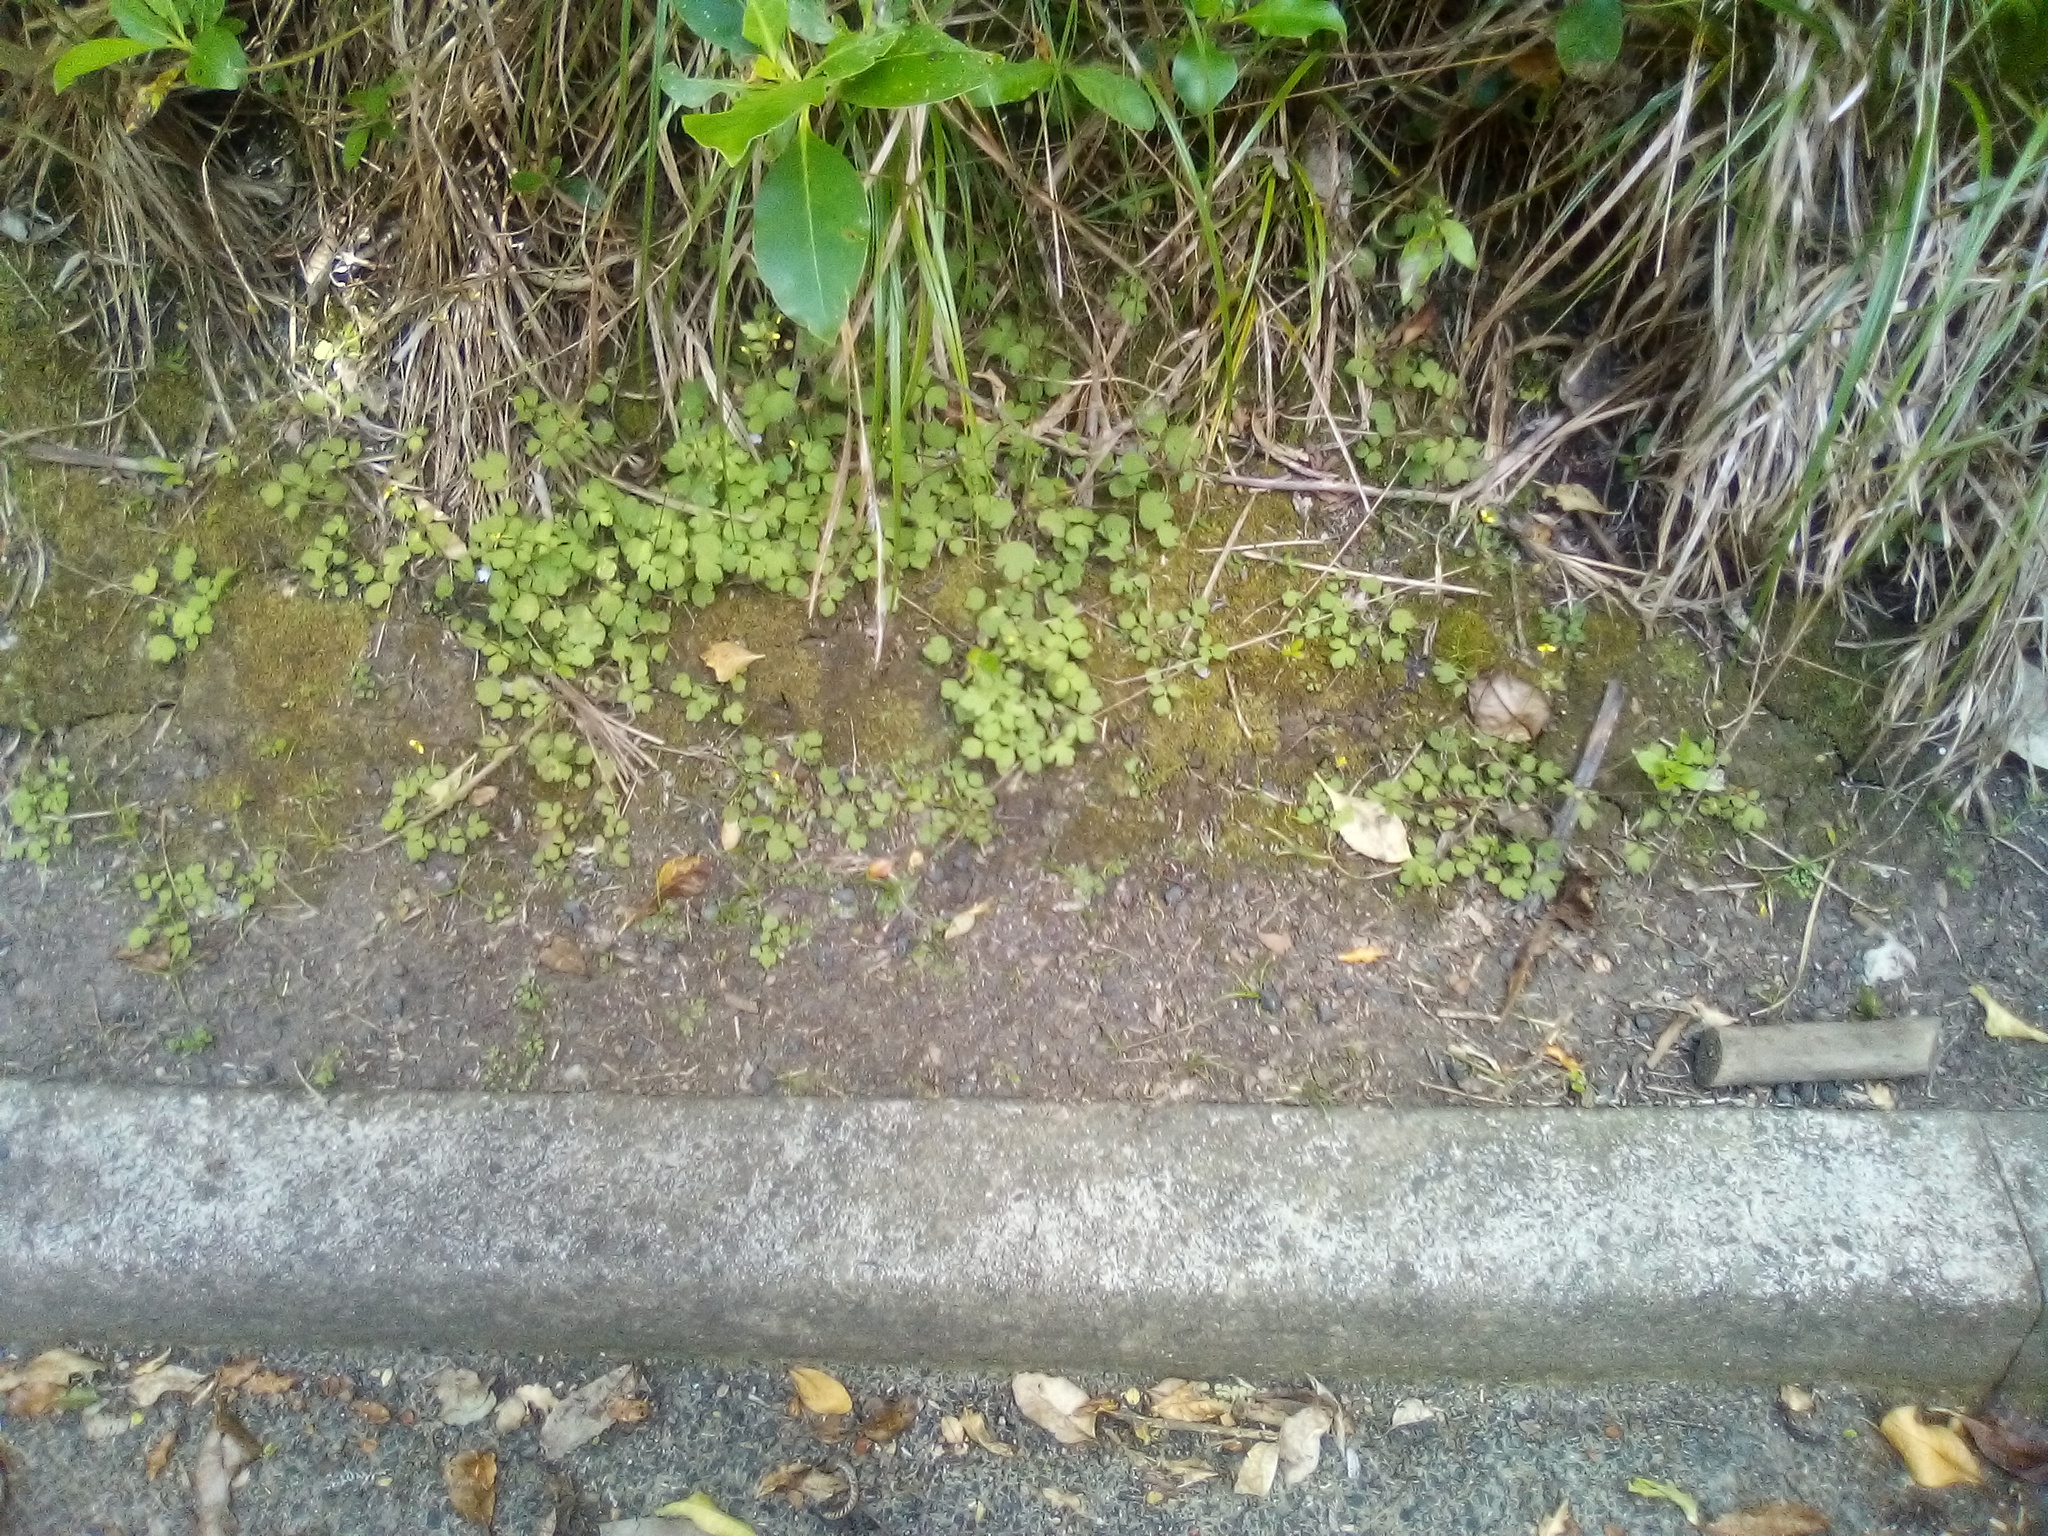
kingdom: Plantae
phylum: Tracheophyta
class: Magnoliopsida
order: Ranunculales
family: Ranunculaceae
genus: Ranunculus
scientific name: Ranunculus reflexus
